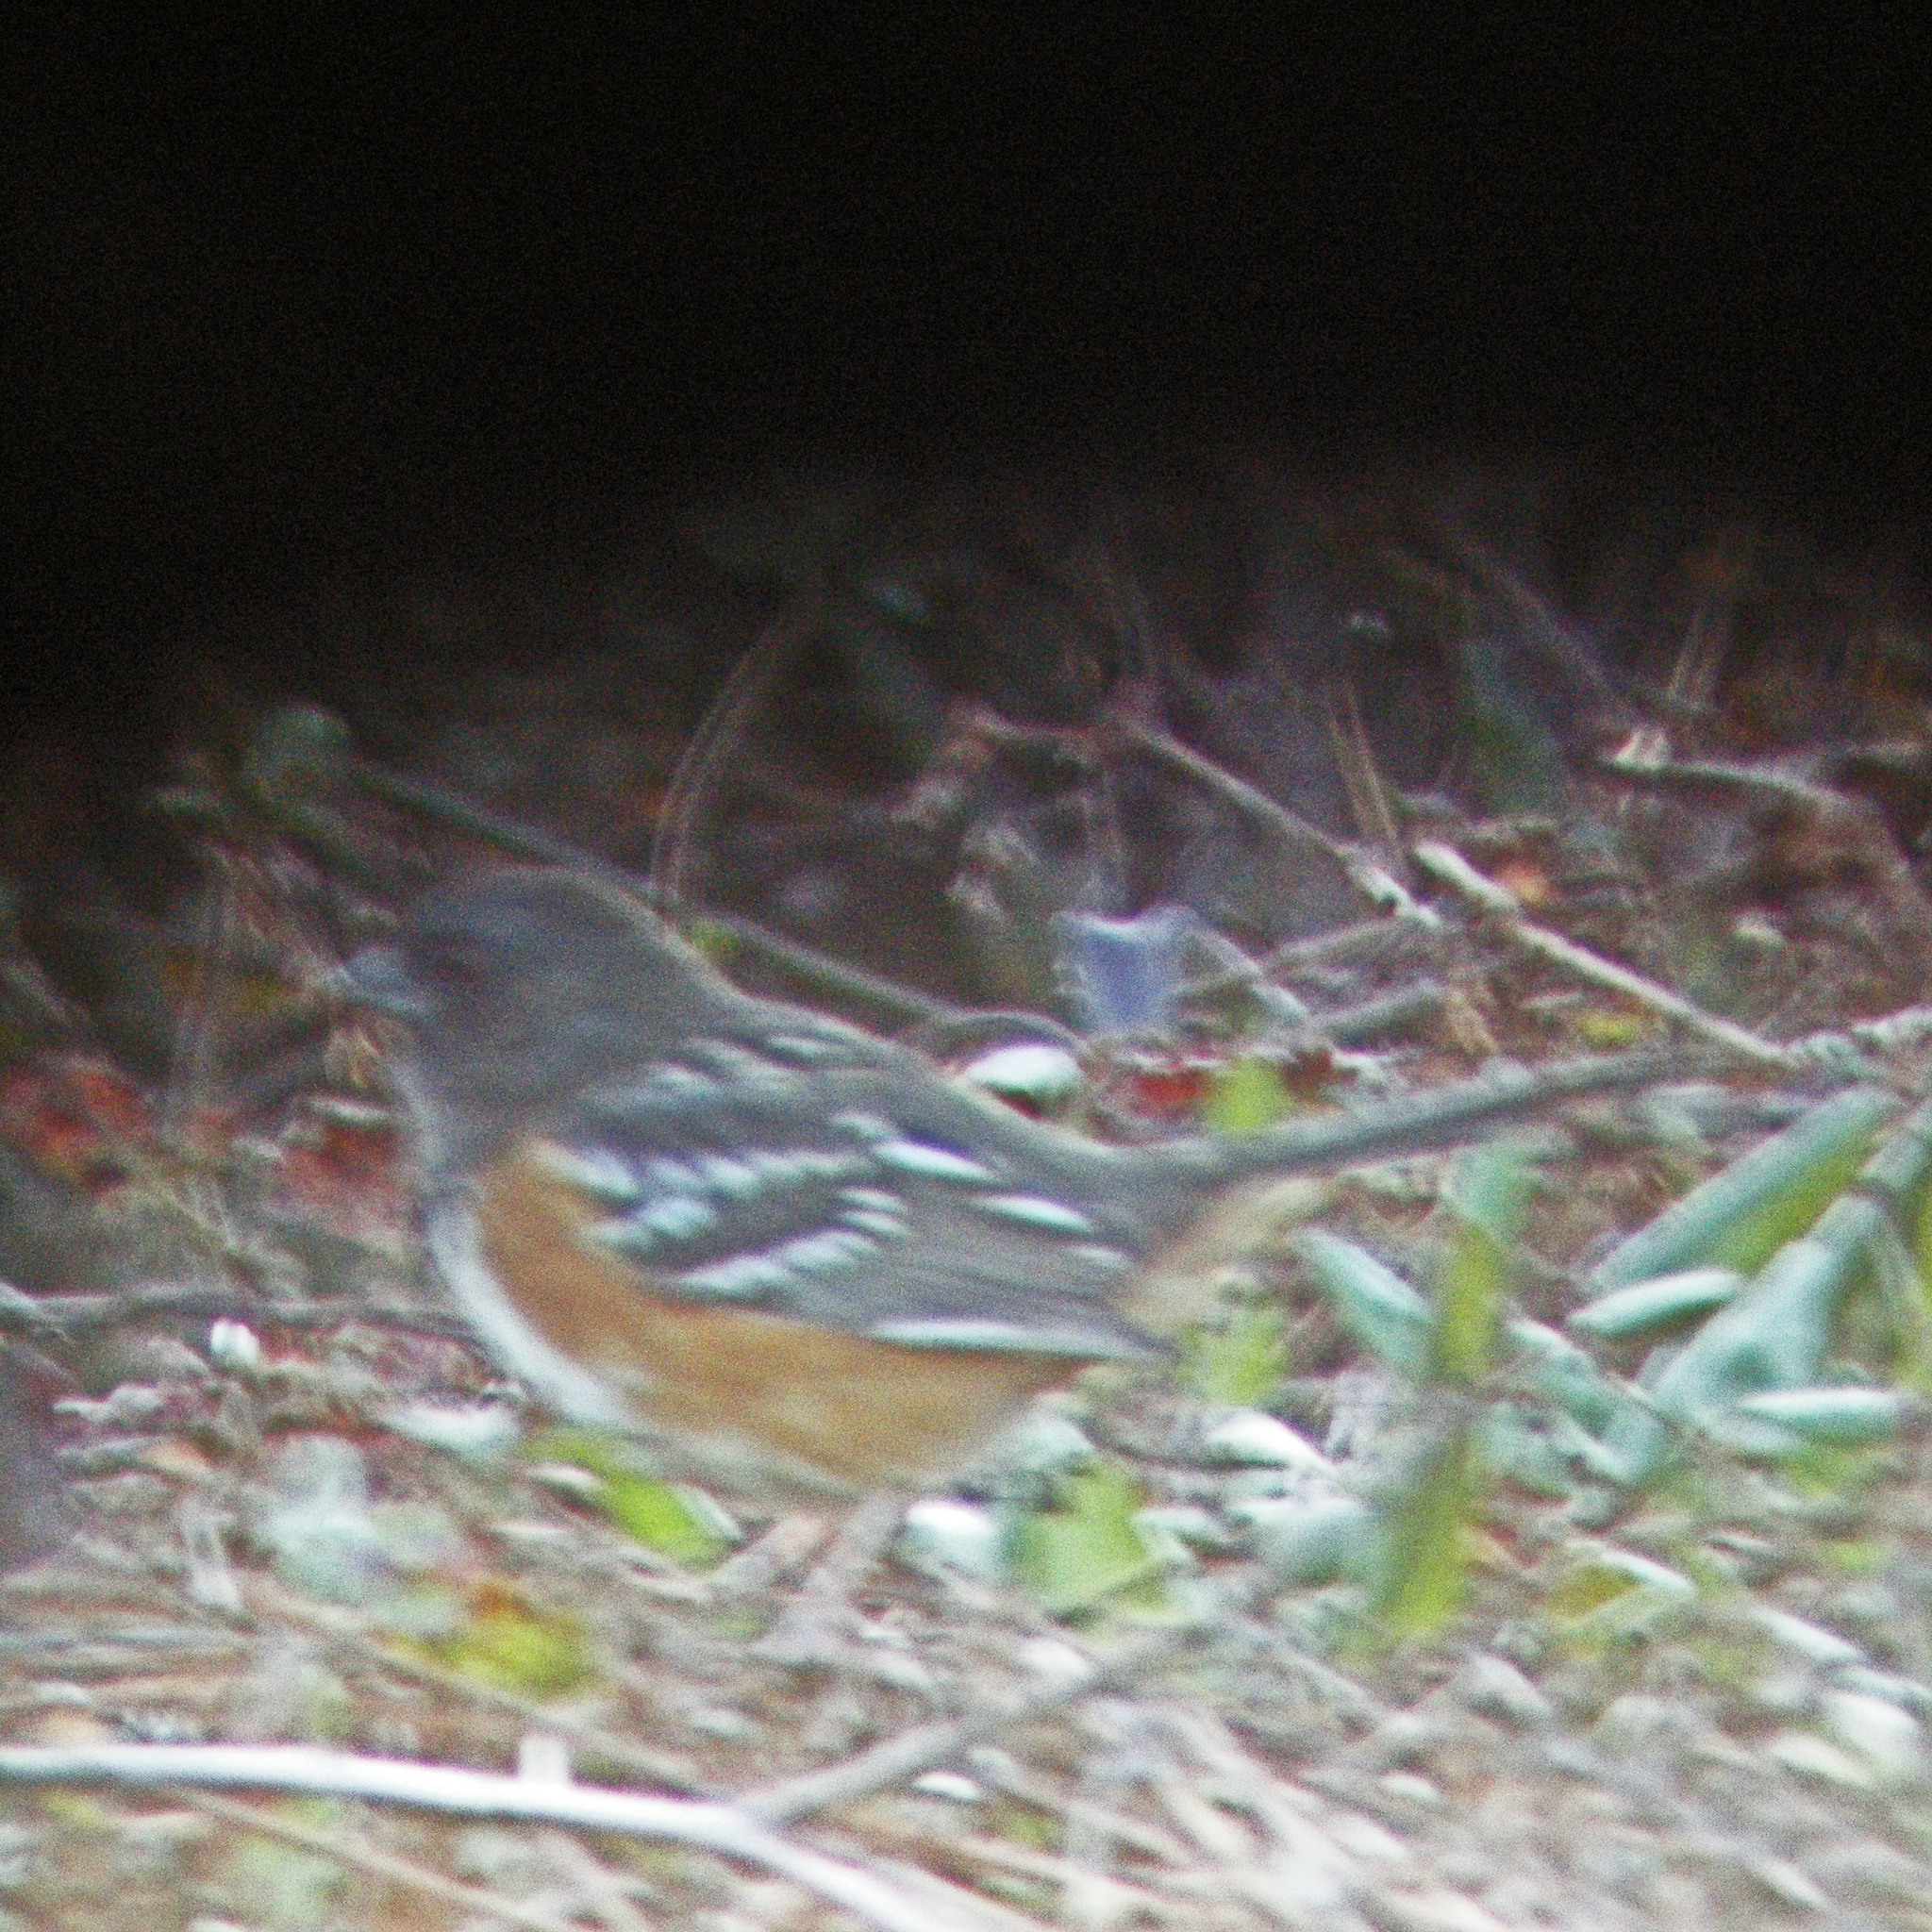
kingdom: Animalia
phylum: Chordata
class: Aves
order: Passeriformes
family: Passerellidae
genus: Pipilo
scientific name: Pipilo maculatus
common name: Spotted towhee
